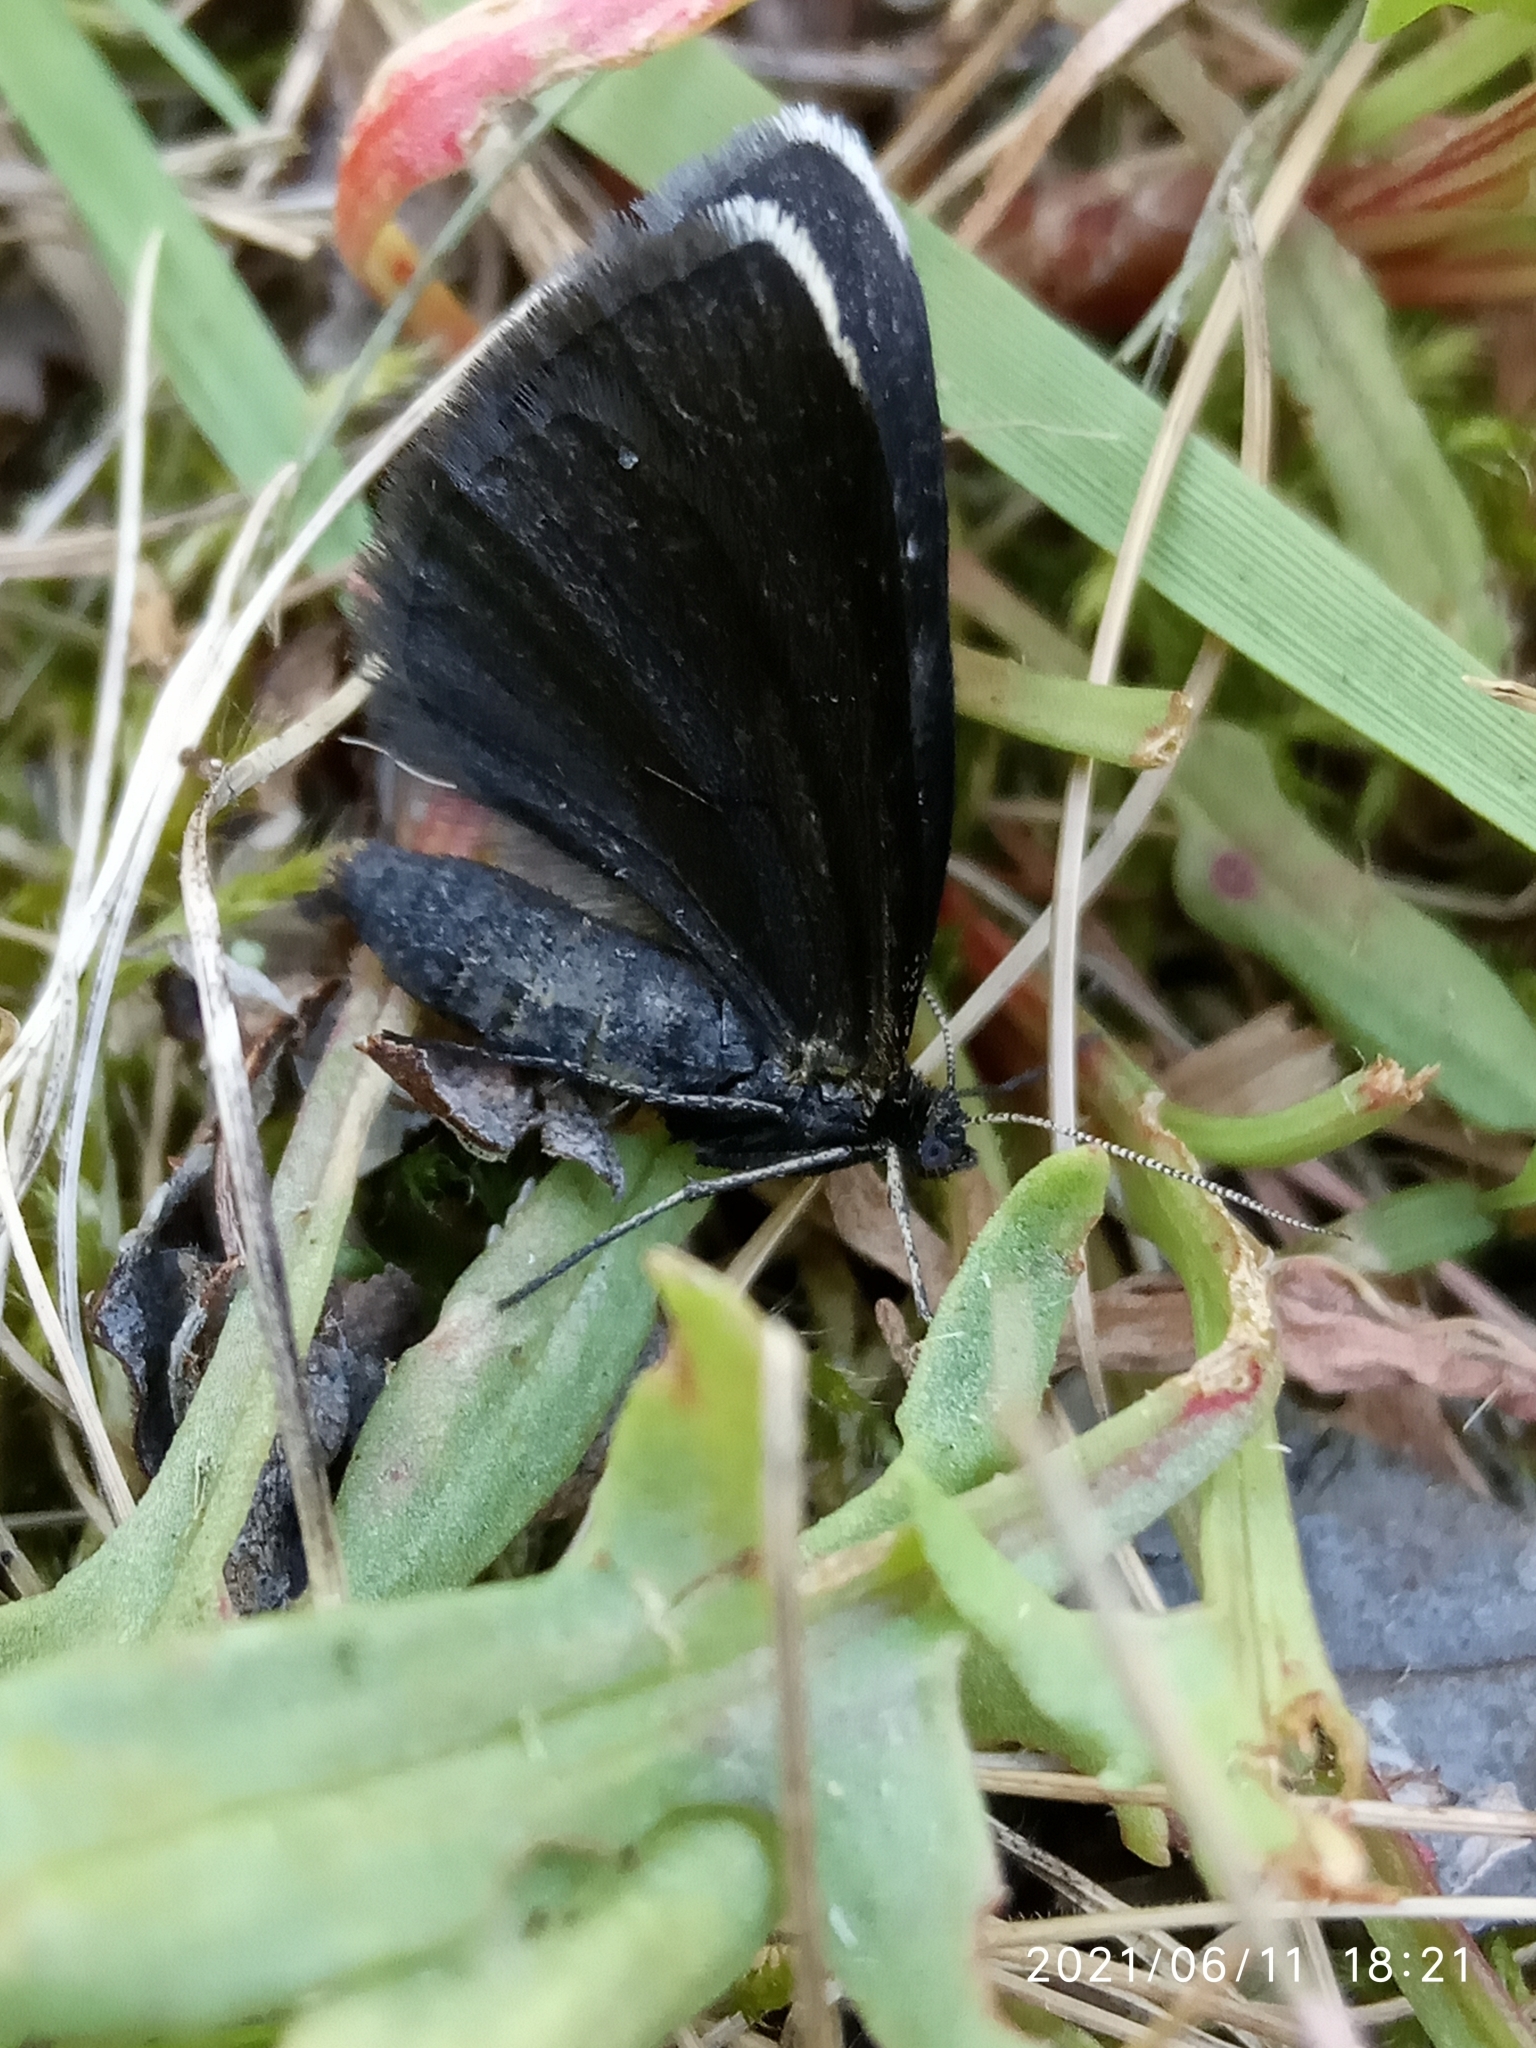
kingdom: Animalia
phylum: Arthropoda
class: Insecta
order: Lepidoptera
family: Geometridae
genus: Odezia
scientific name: Odezia atrata
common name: Chimney sweeper
